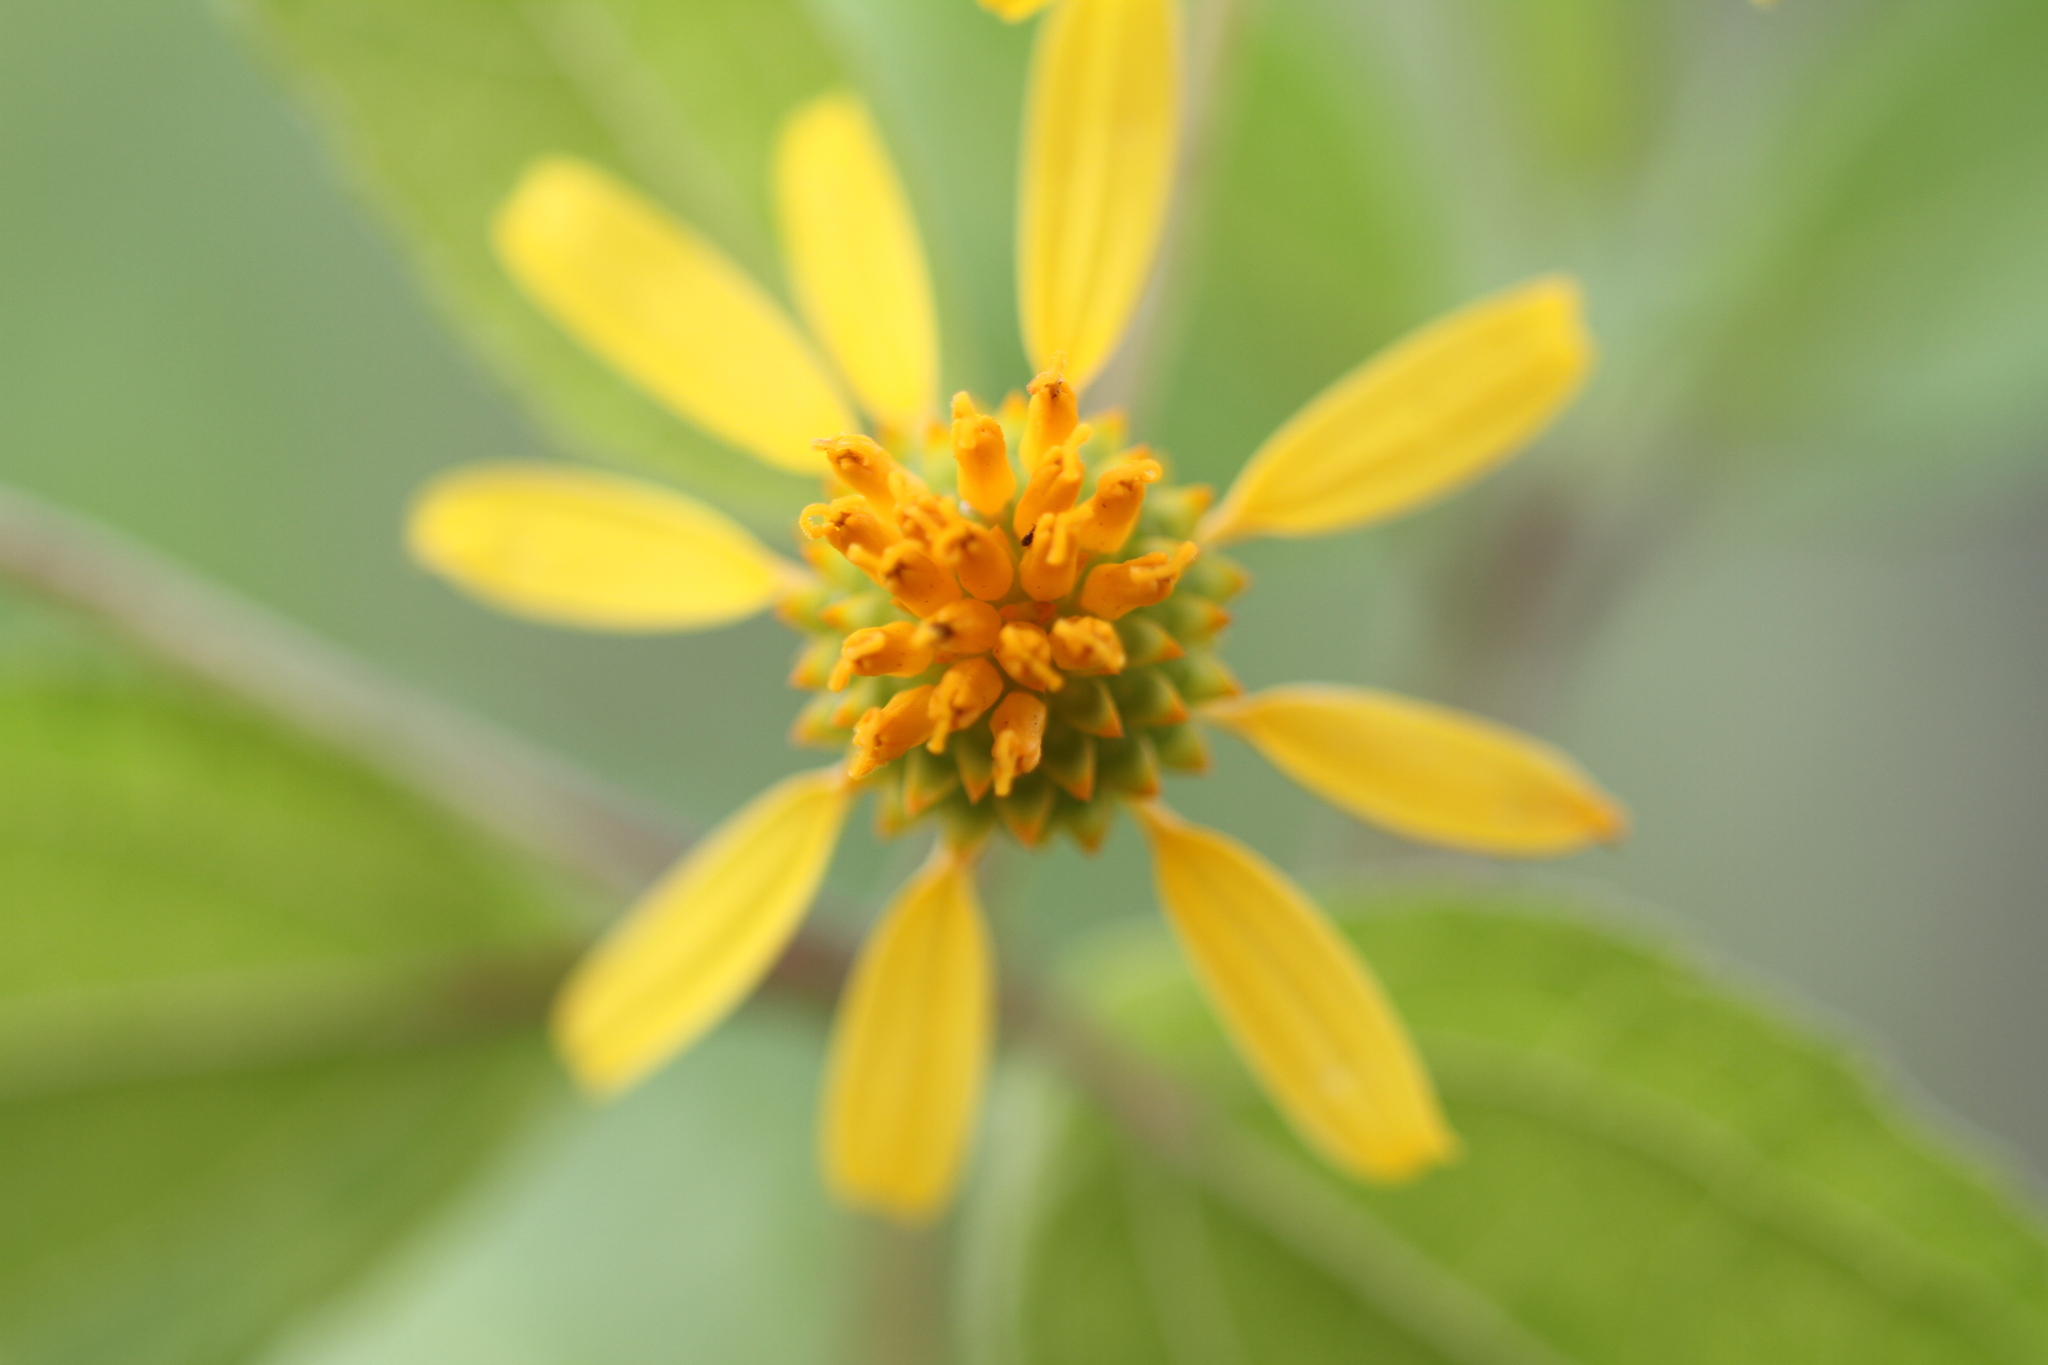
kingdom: Plantae
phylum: Tracheophyta
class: Magnoliopsida
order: Asterales
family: Asteraceae
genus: Tilesia
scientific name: Tilesia baccata
